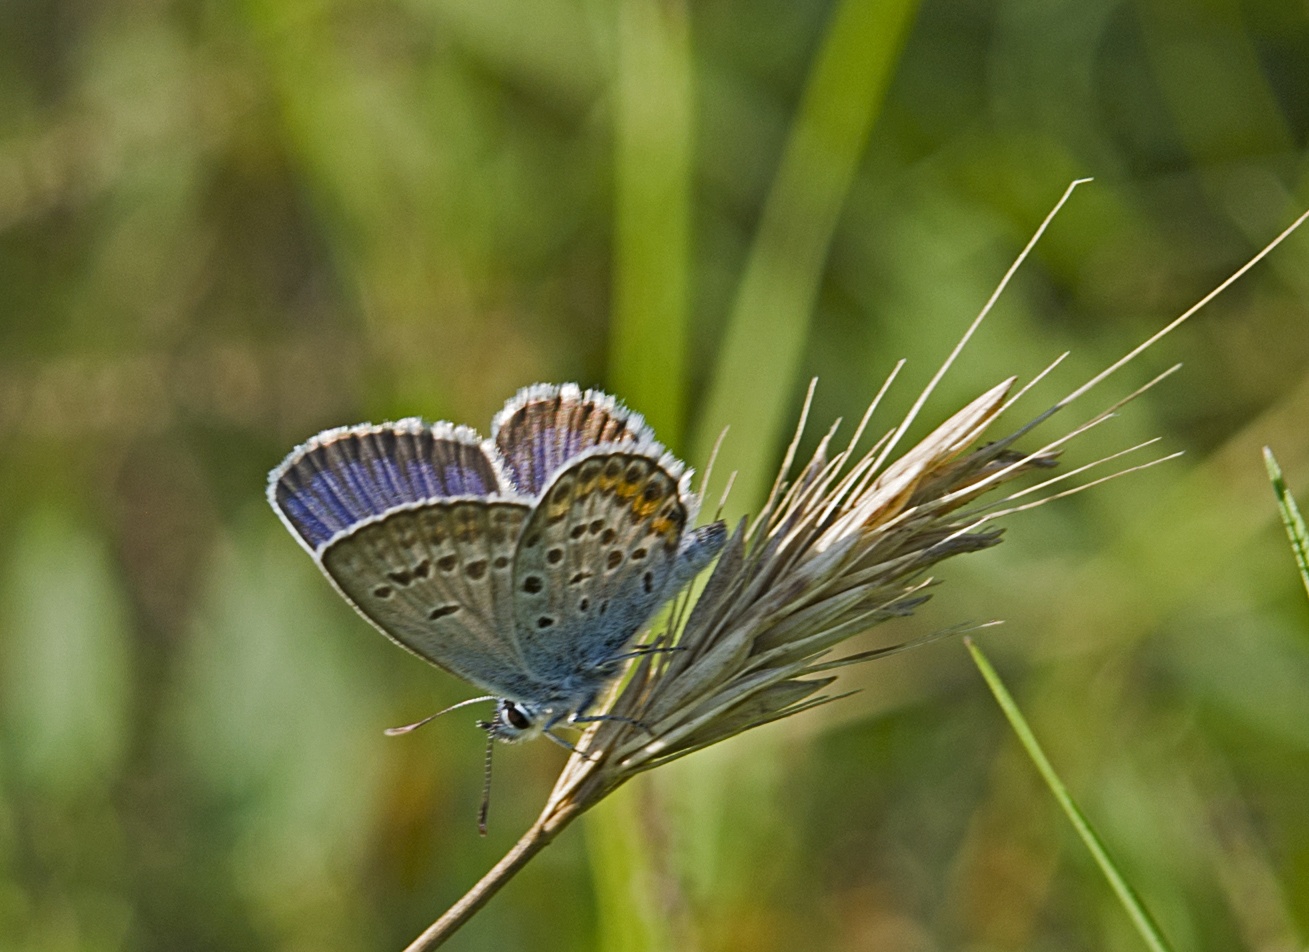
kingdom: Animalia
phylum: Arthropoda
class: Insecta
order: Lepidoptera
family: Lycaenidae
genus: Plebejus
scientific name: Plebejus argus
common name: Silver-studded blue
